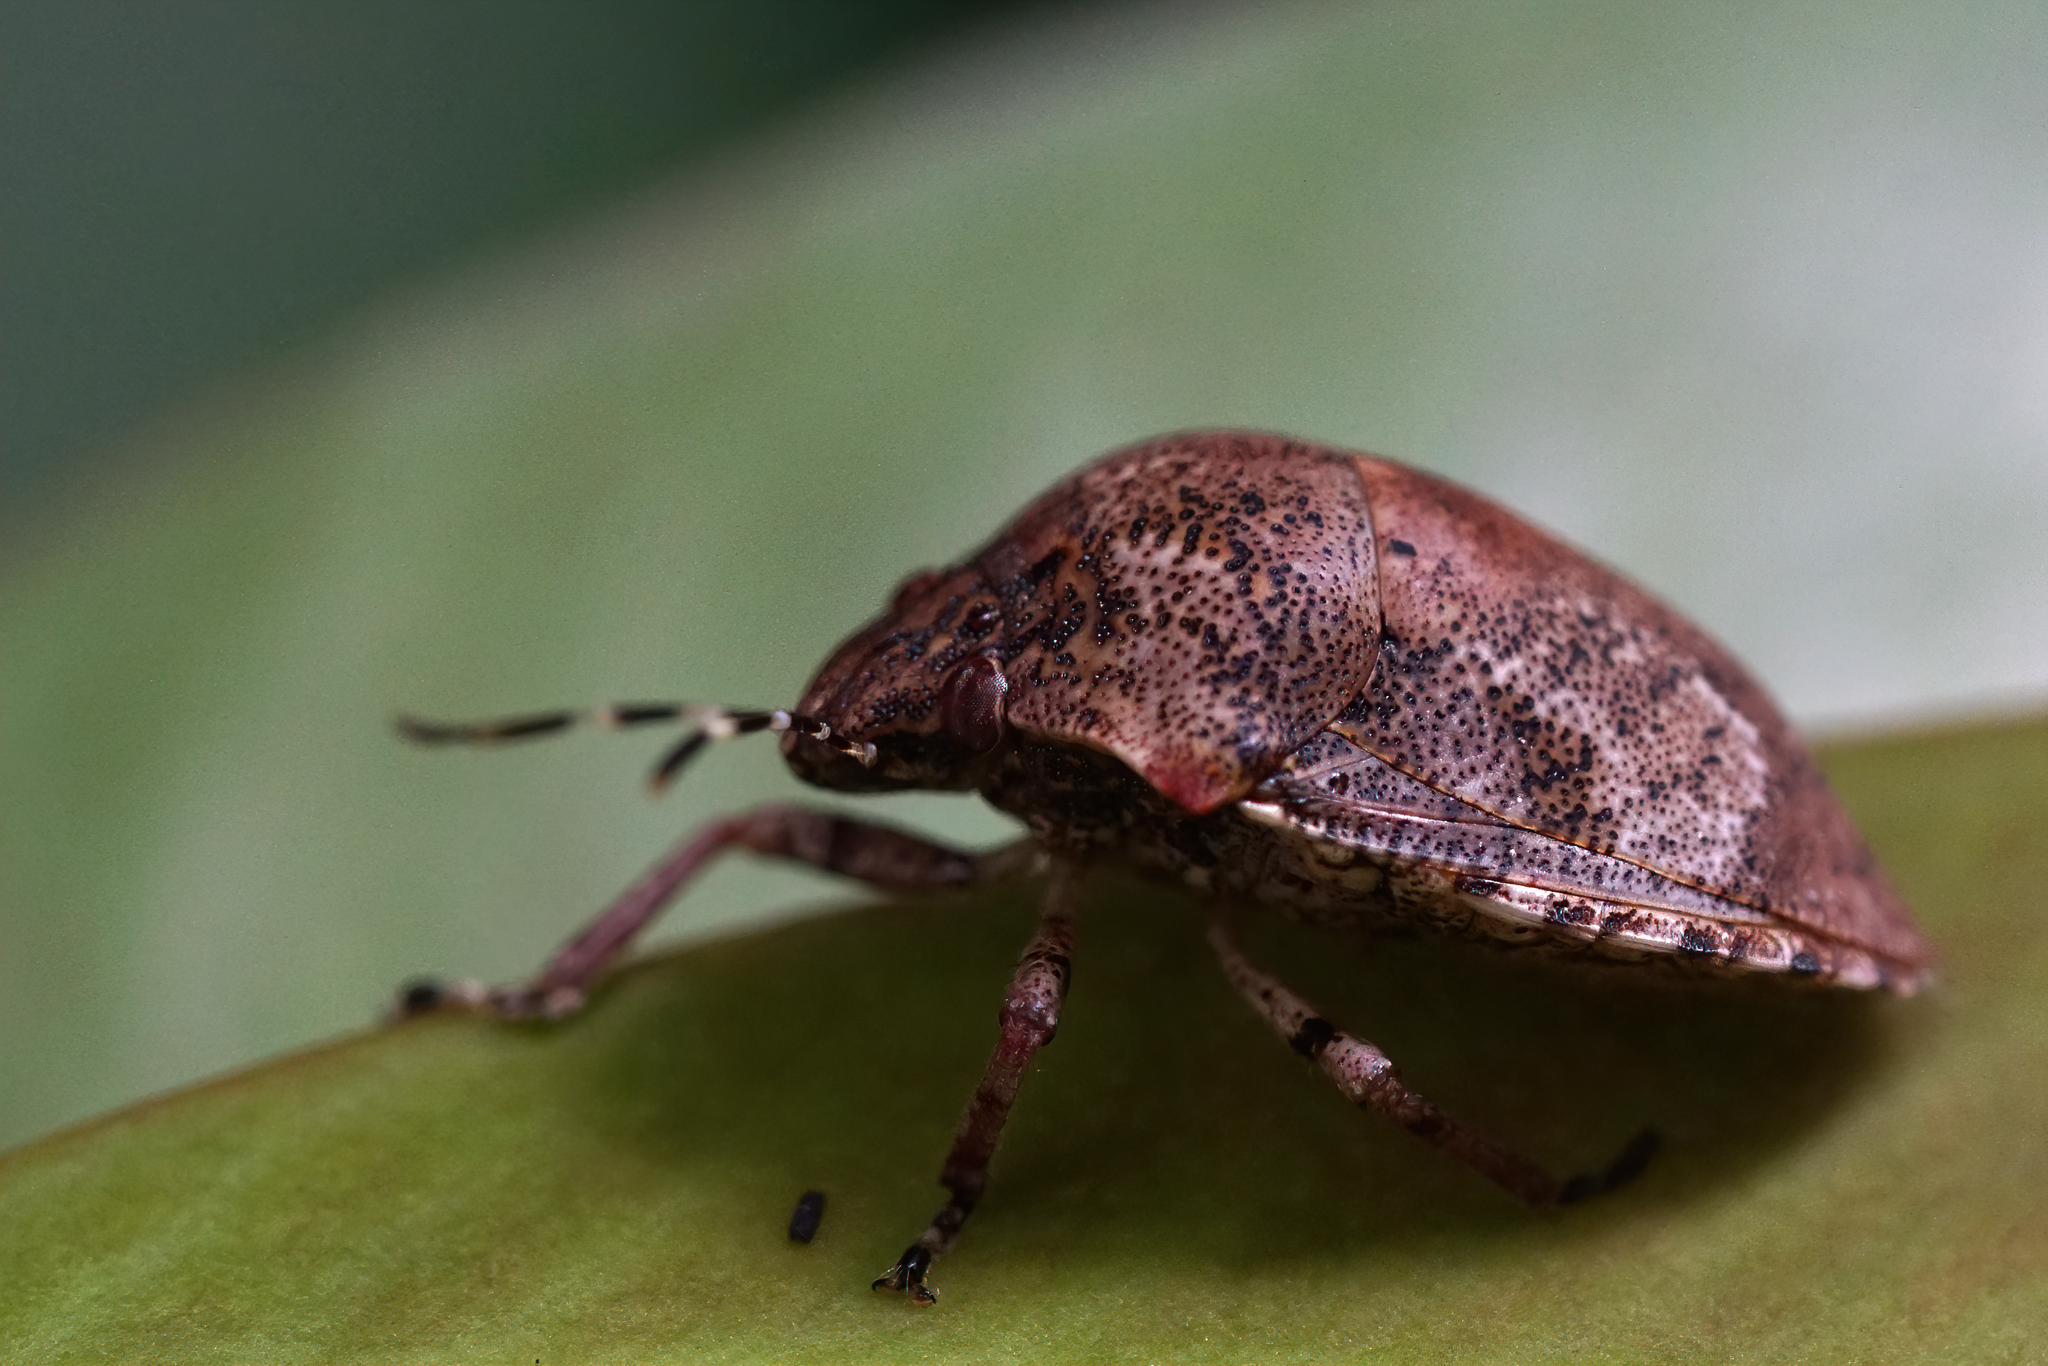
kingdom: Animalia
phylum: Arthropoda
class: Insecta
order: Hemiptera
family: Scutelleridae
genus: Tetyra
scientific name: Tetyra antillarum
